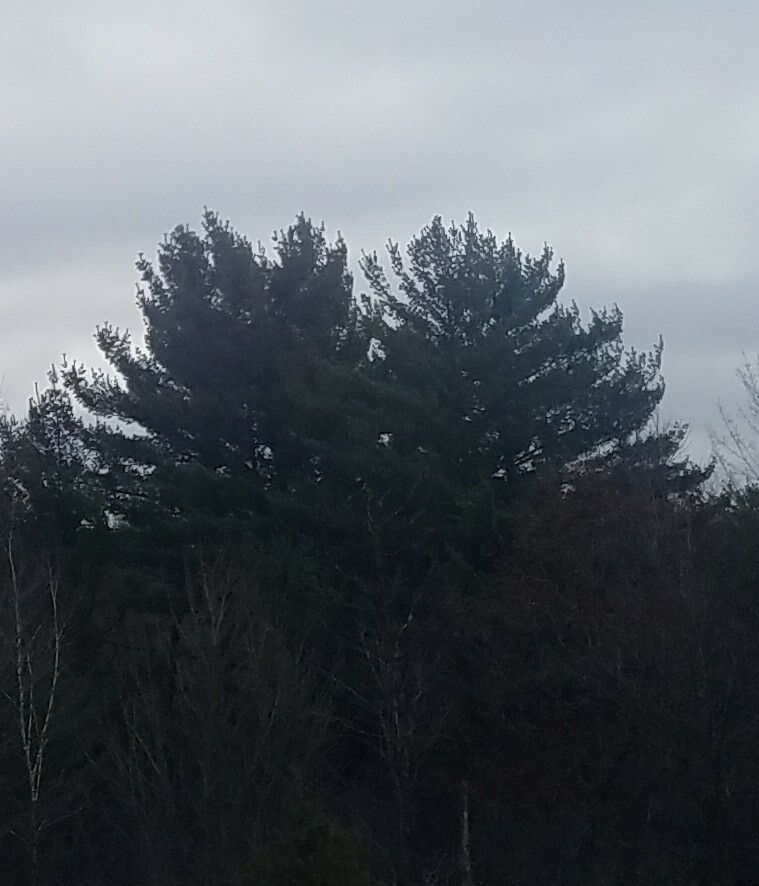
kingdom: Plantae
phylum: Tracheophyta
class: Pinopsida
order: Pinales
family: Pinaceae
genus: Pinus
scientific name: Pinus strobus
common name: Weymouth pine
